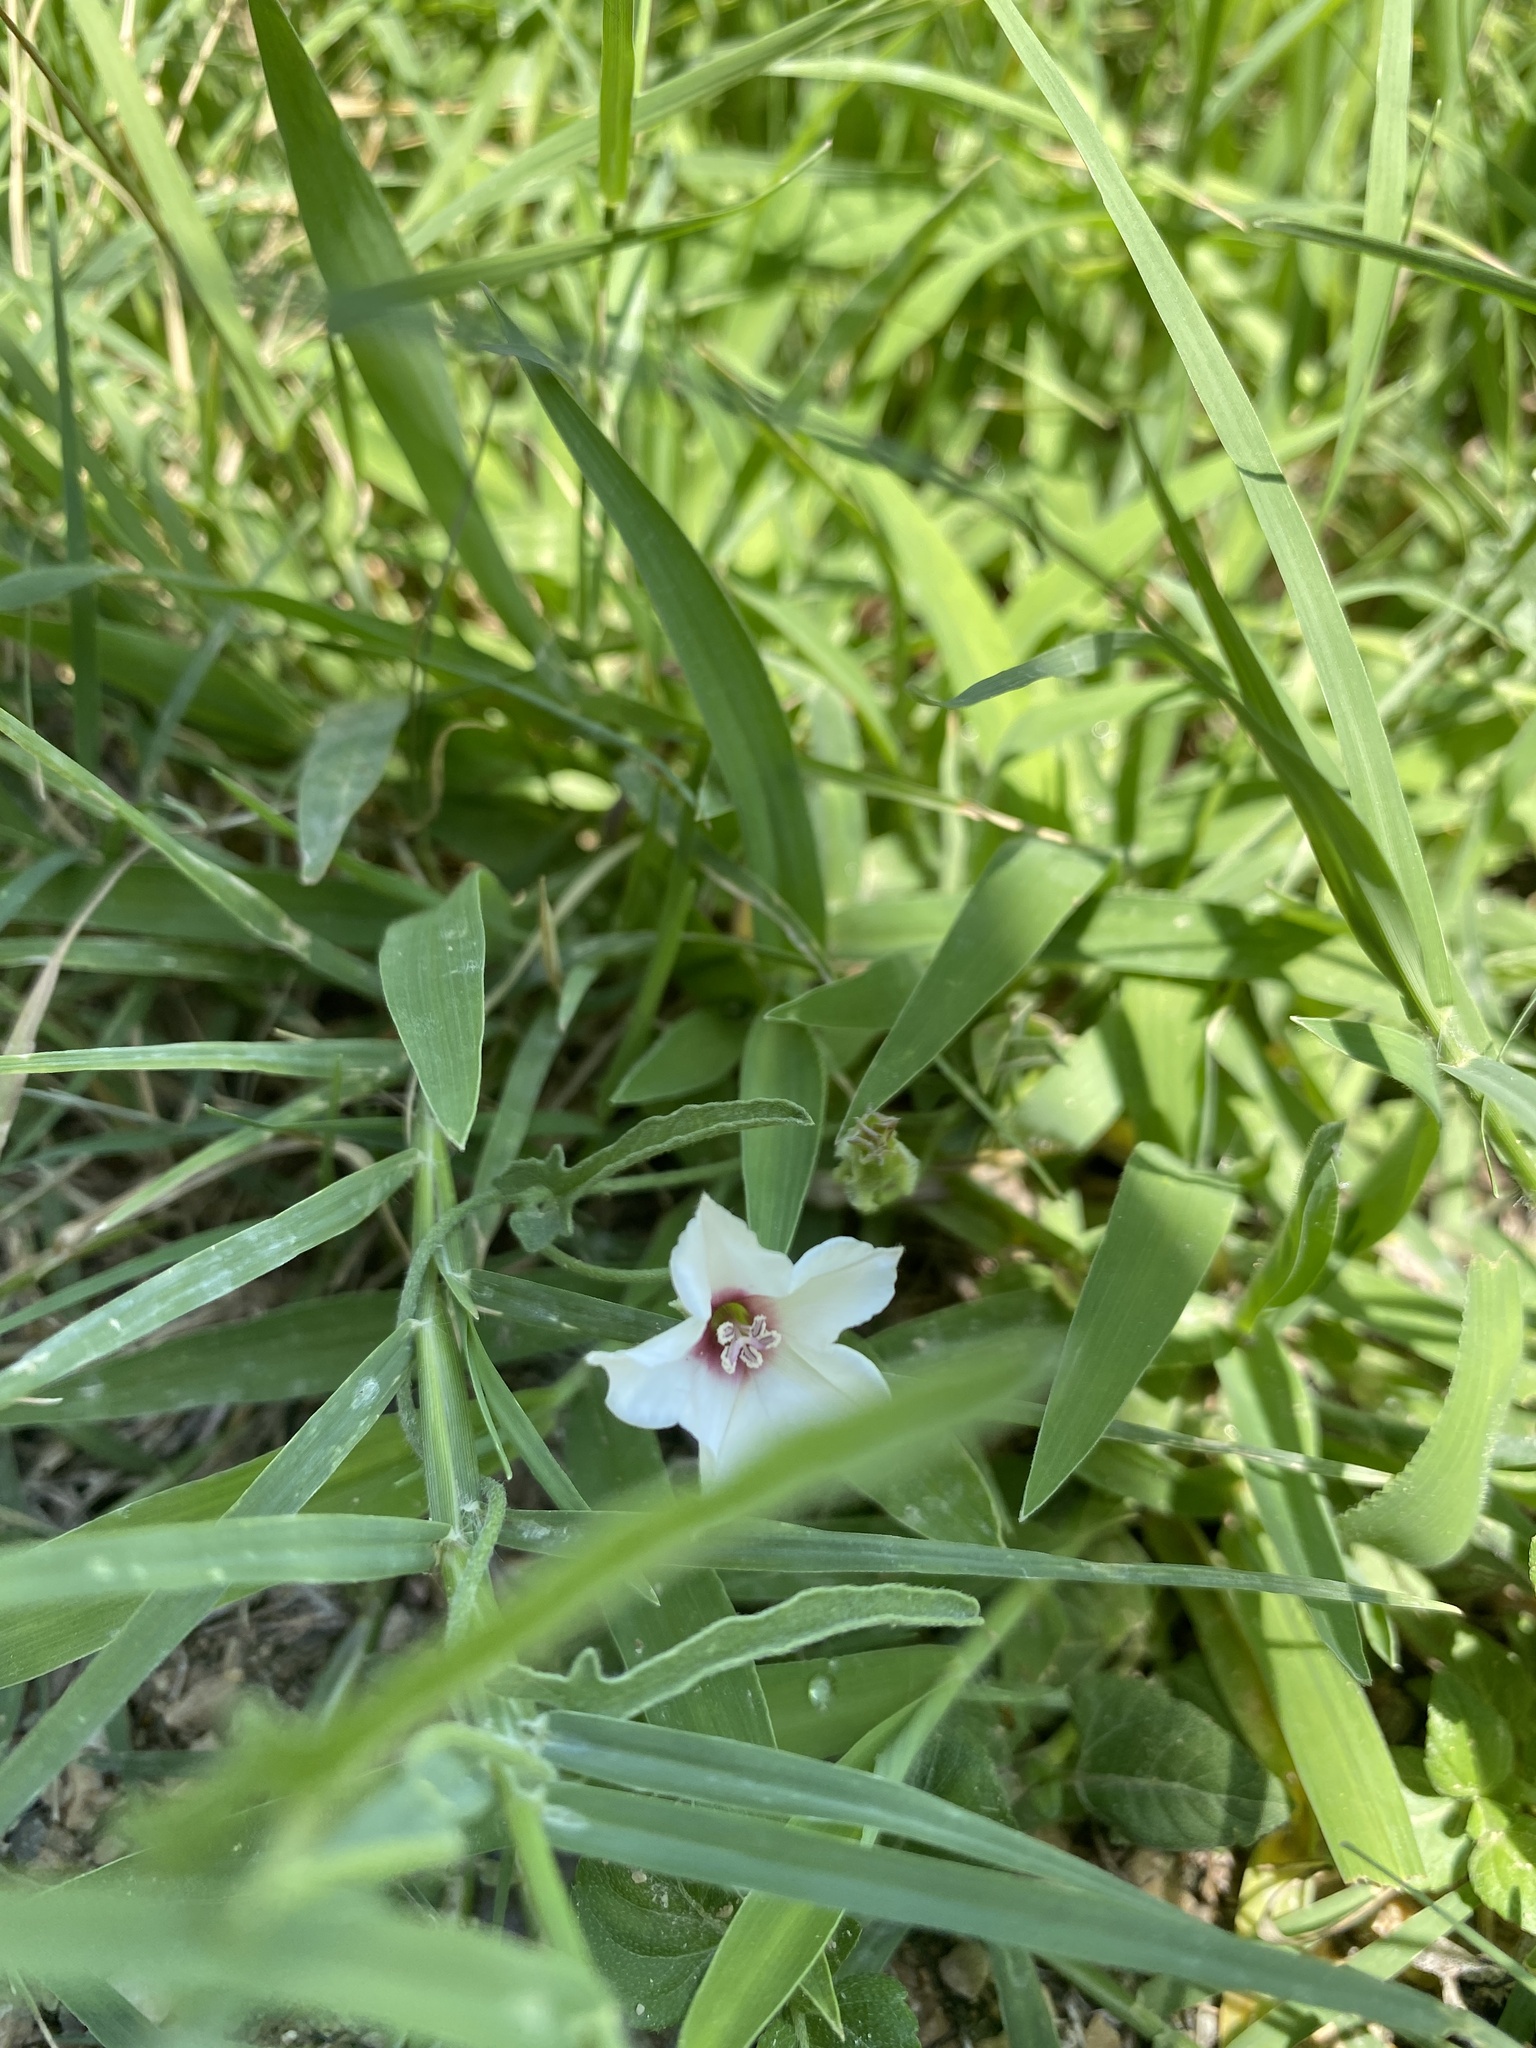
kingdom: Plantae
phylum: Tracheophyta
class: Magnoliopsida
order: Solanales
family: Convolvulaceae
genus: Convolvulus
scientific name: Convolvulus equitans
